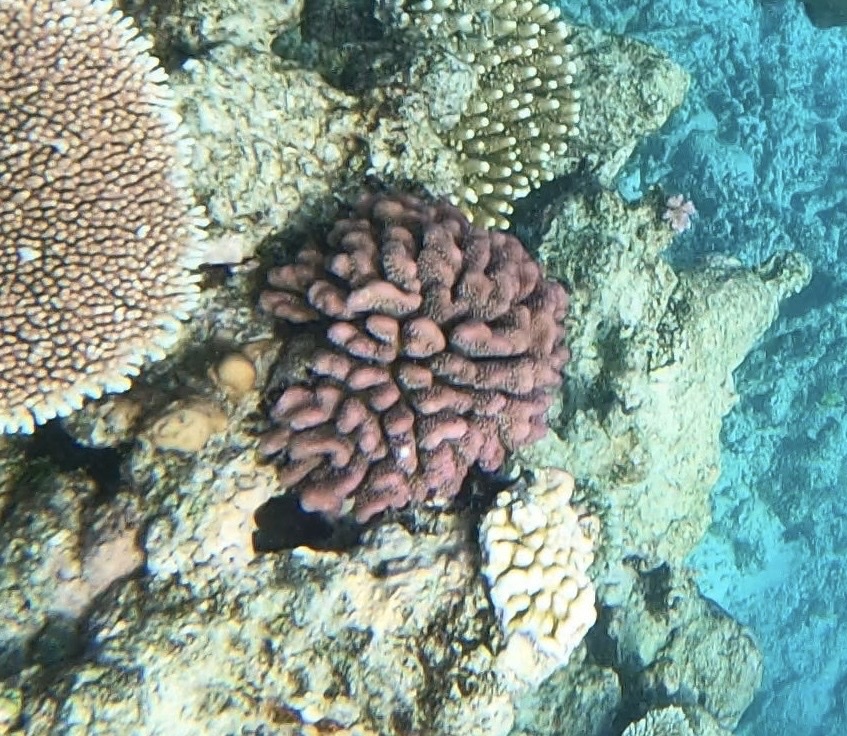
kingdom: Animalia
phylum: Cnidaria
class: Anthozoa
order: Scleractinia
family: Pocilloporidae
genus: Pocillopora
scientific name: Pocillopora verrucosa
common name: Cauliflower coral
